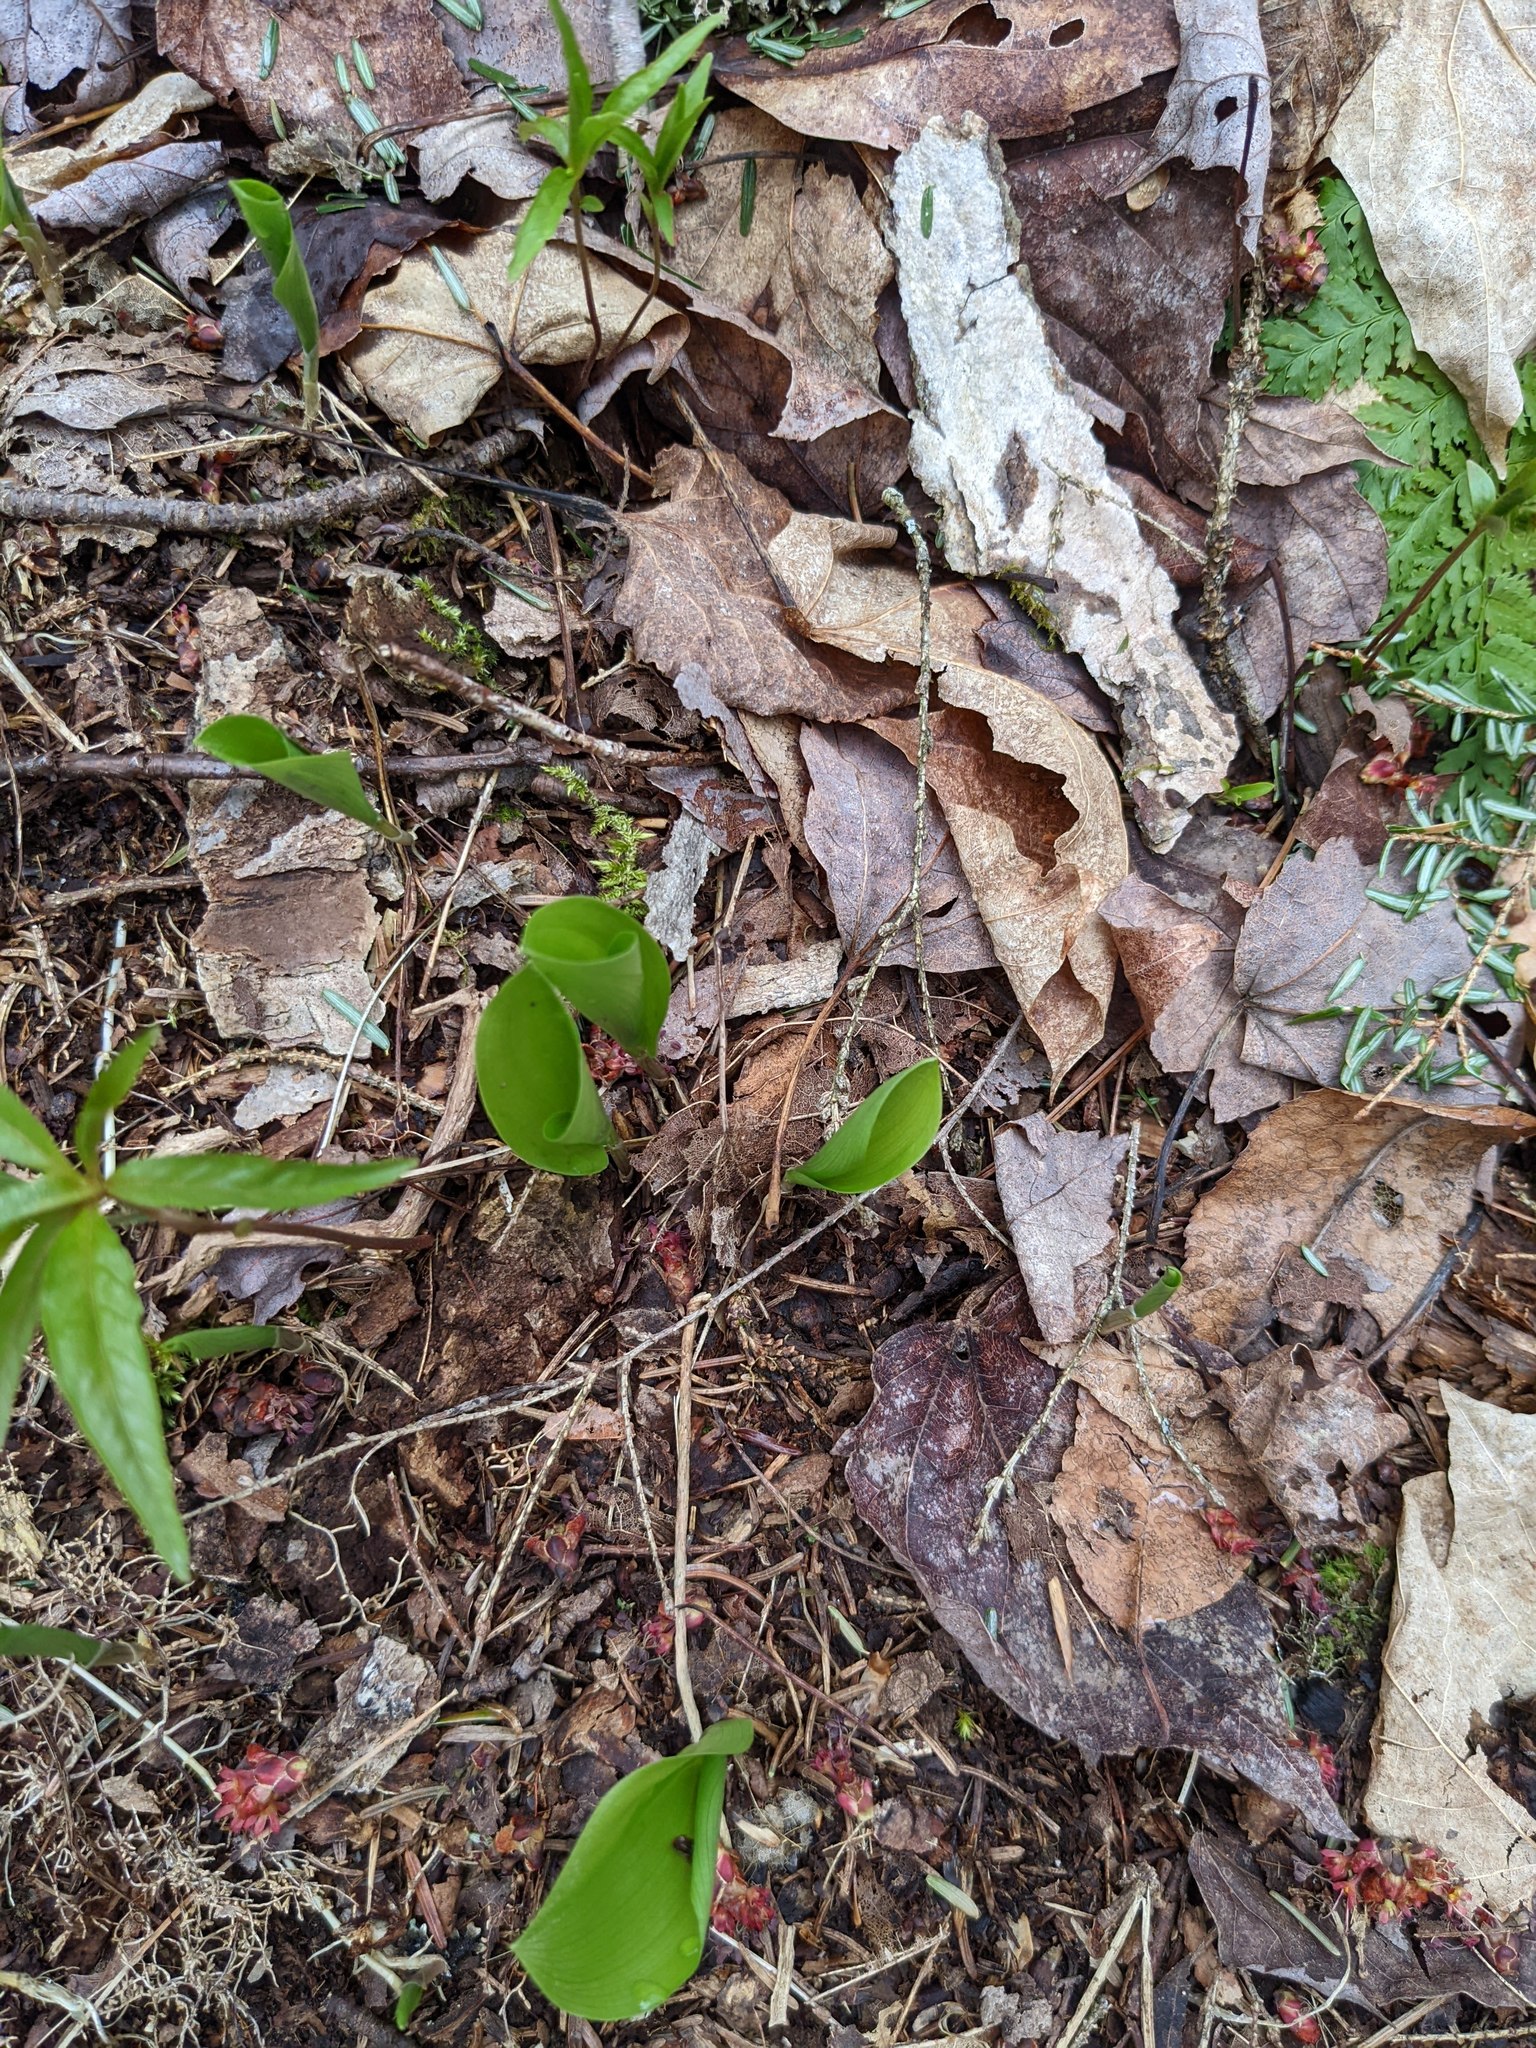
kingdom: Plantae
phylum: Tracheophyta
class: Liliopsida
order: Asparagales
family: Asparagaceae
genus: Maianthemum
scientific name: Maianthemum canadense
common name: False lily-of-the-valley
